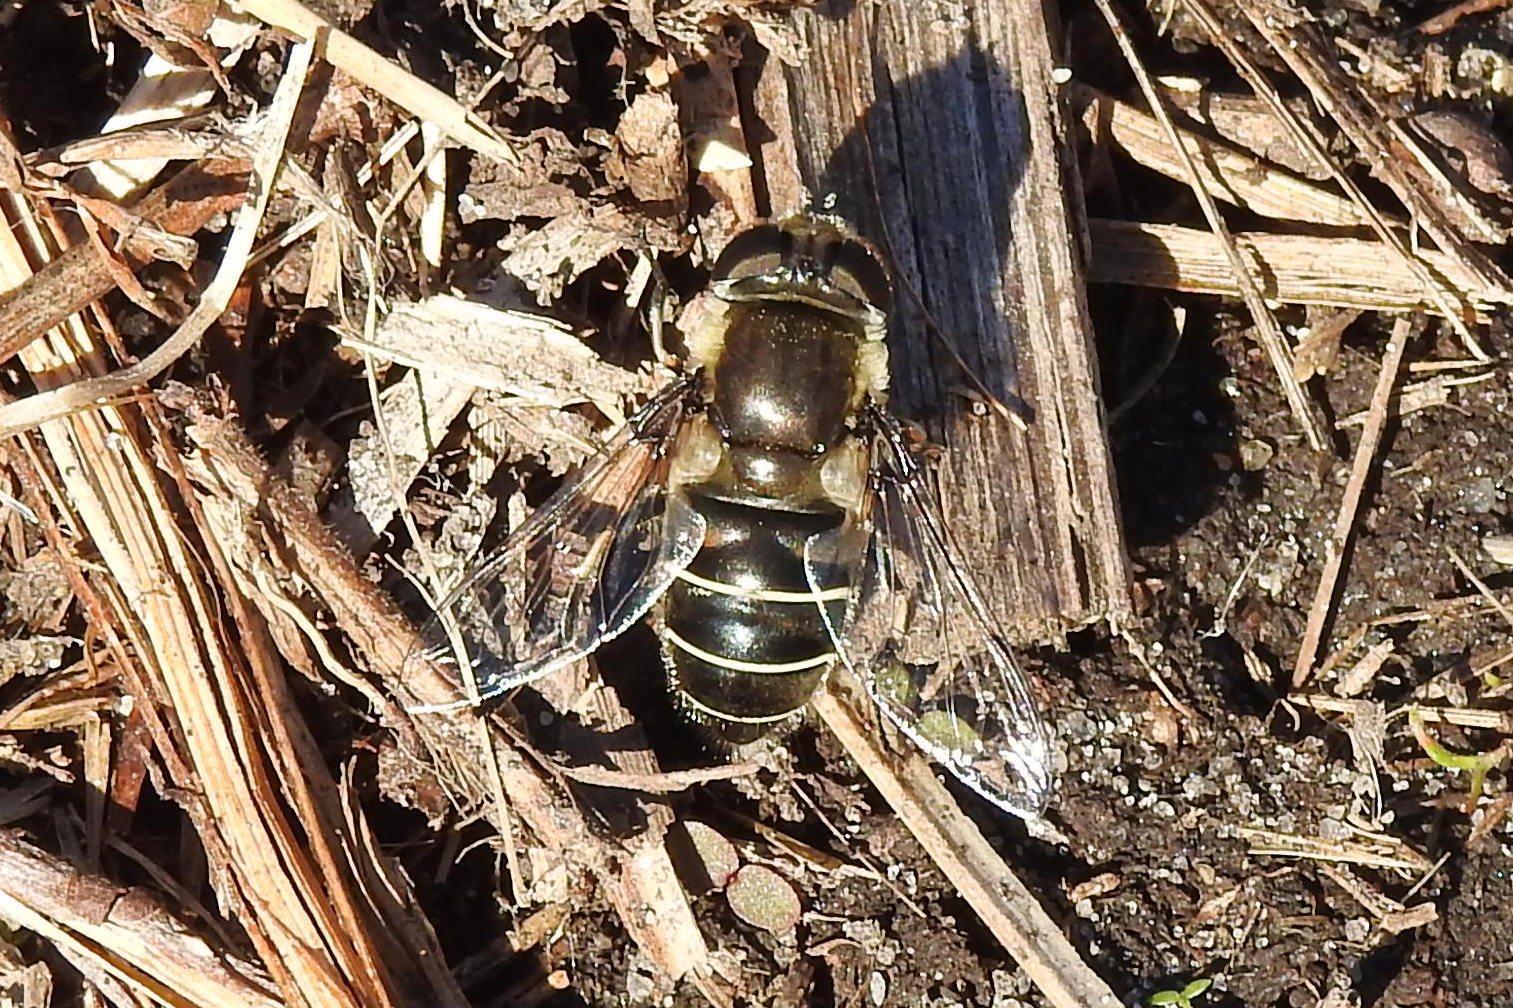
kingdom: Animalia
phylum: Arthropoda
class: Insecta
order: Diptera
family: Syrphidae
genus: Eristalis
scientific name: Eristalis dimidiata
